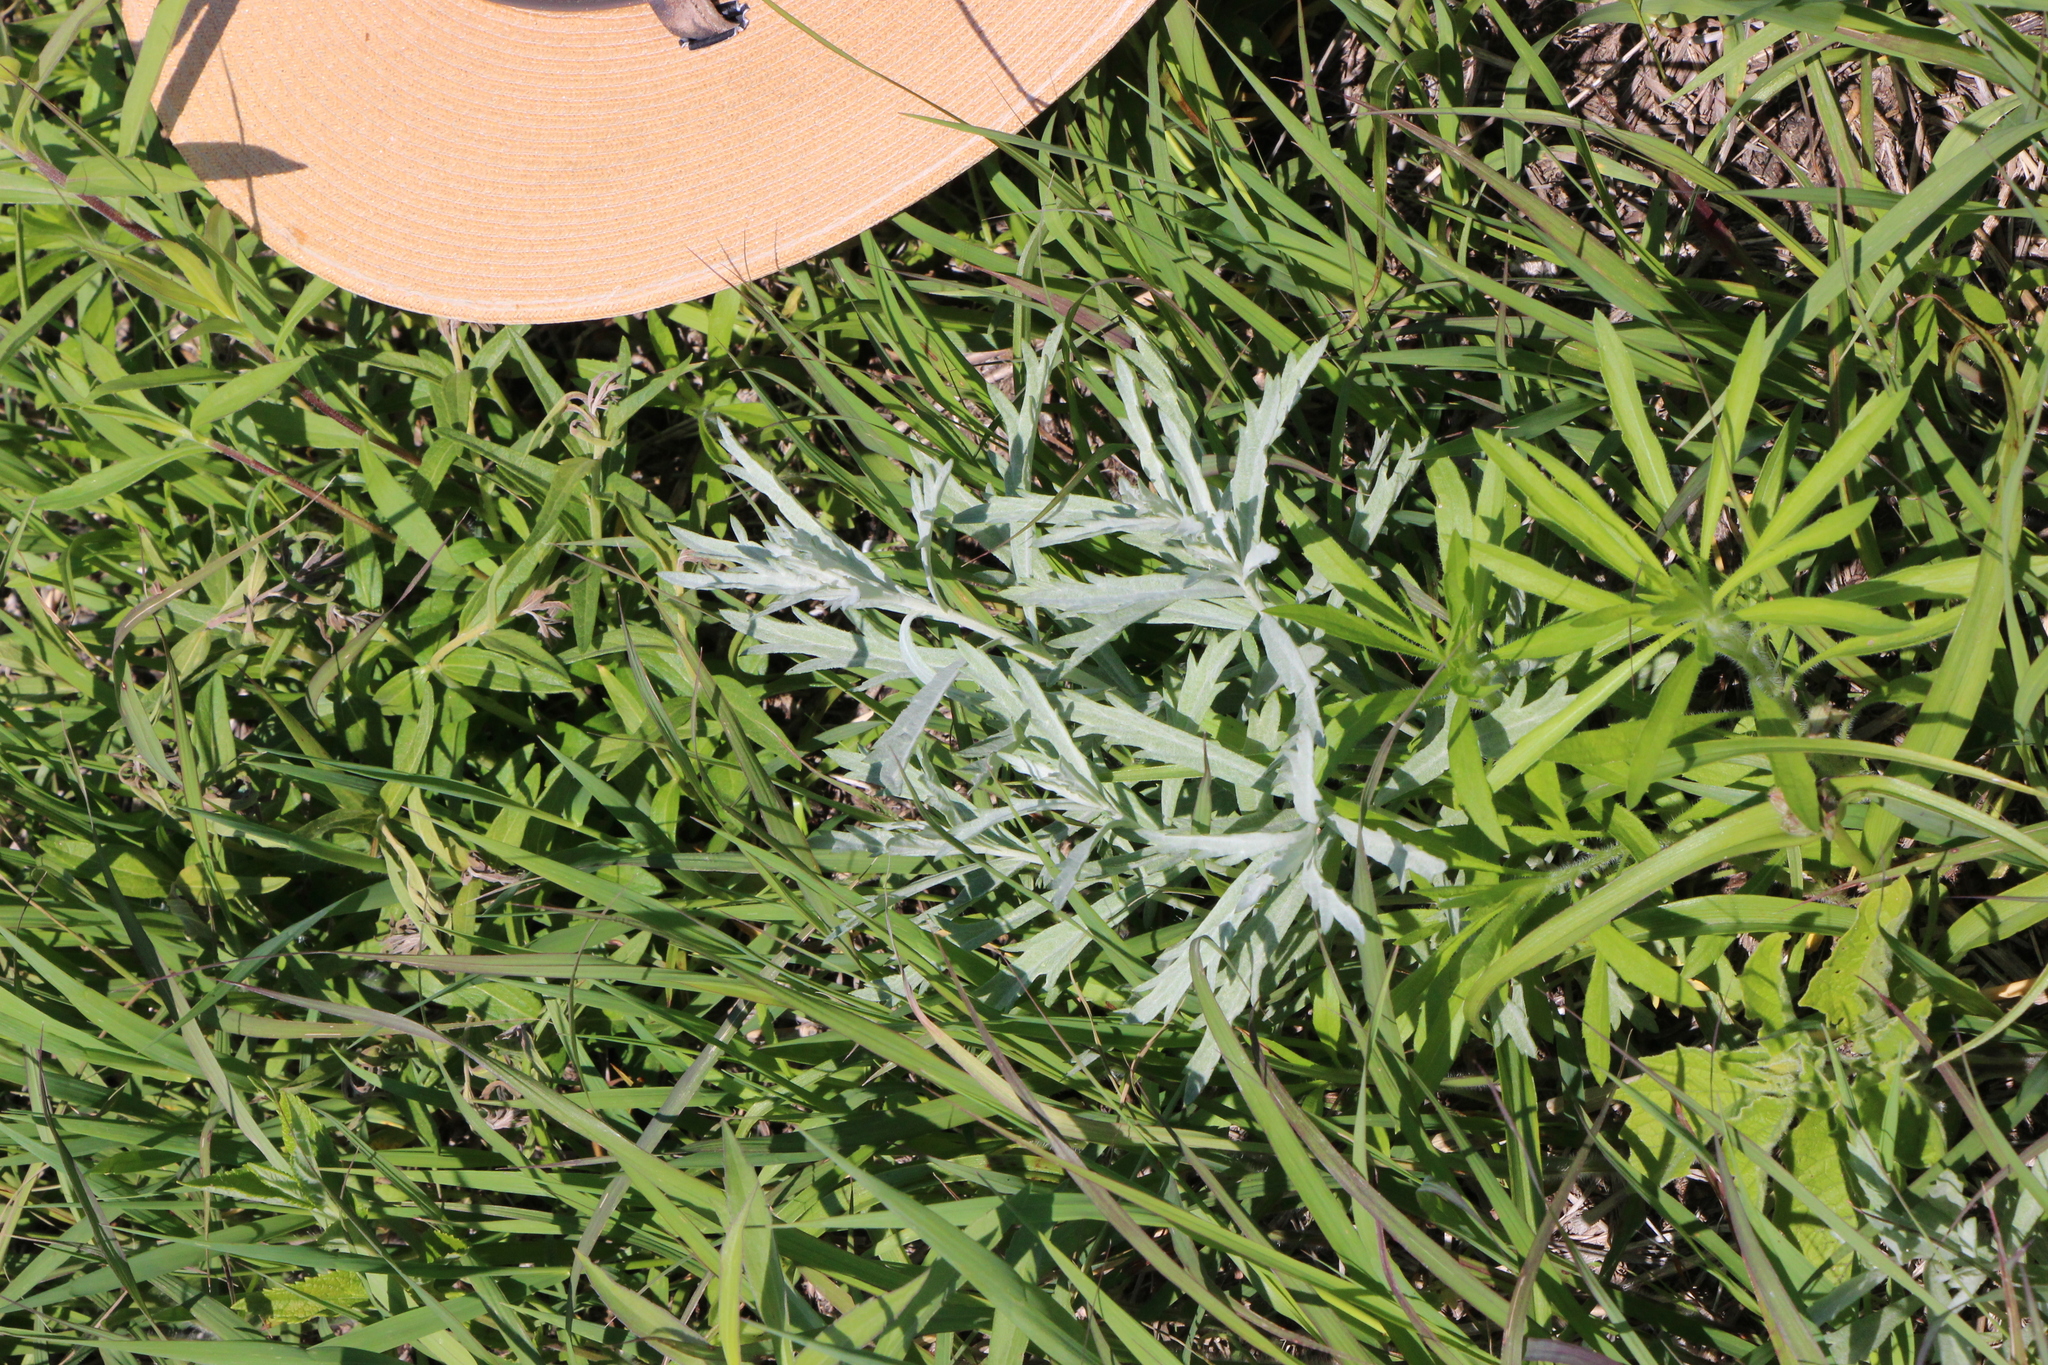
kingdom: Plantae
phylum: Tracheophyta
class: Magnoliopsida
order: Asterales
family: Asteraceae
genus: Artemisia
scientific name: Artemisia ludoviciana
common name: Western mugwort
